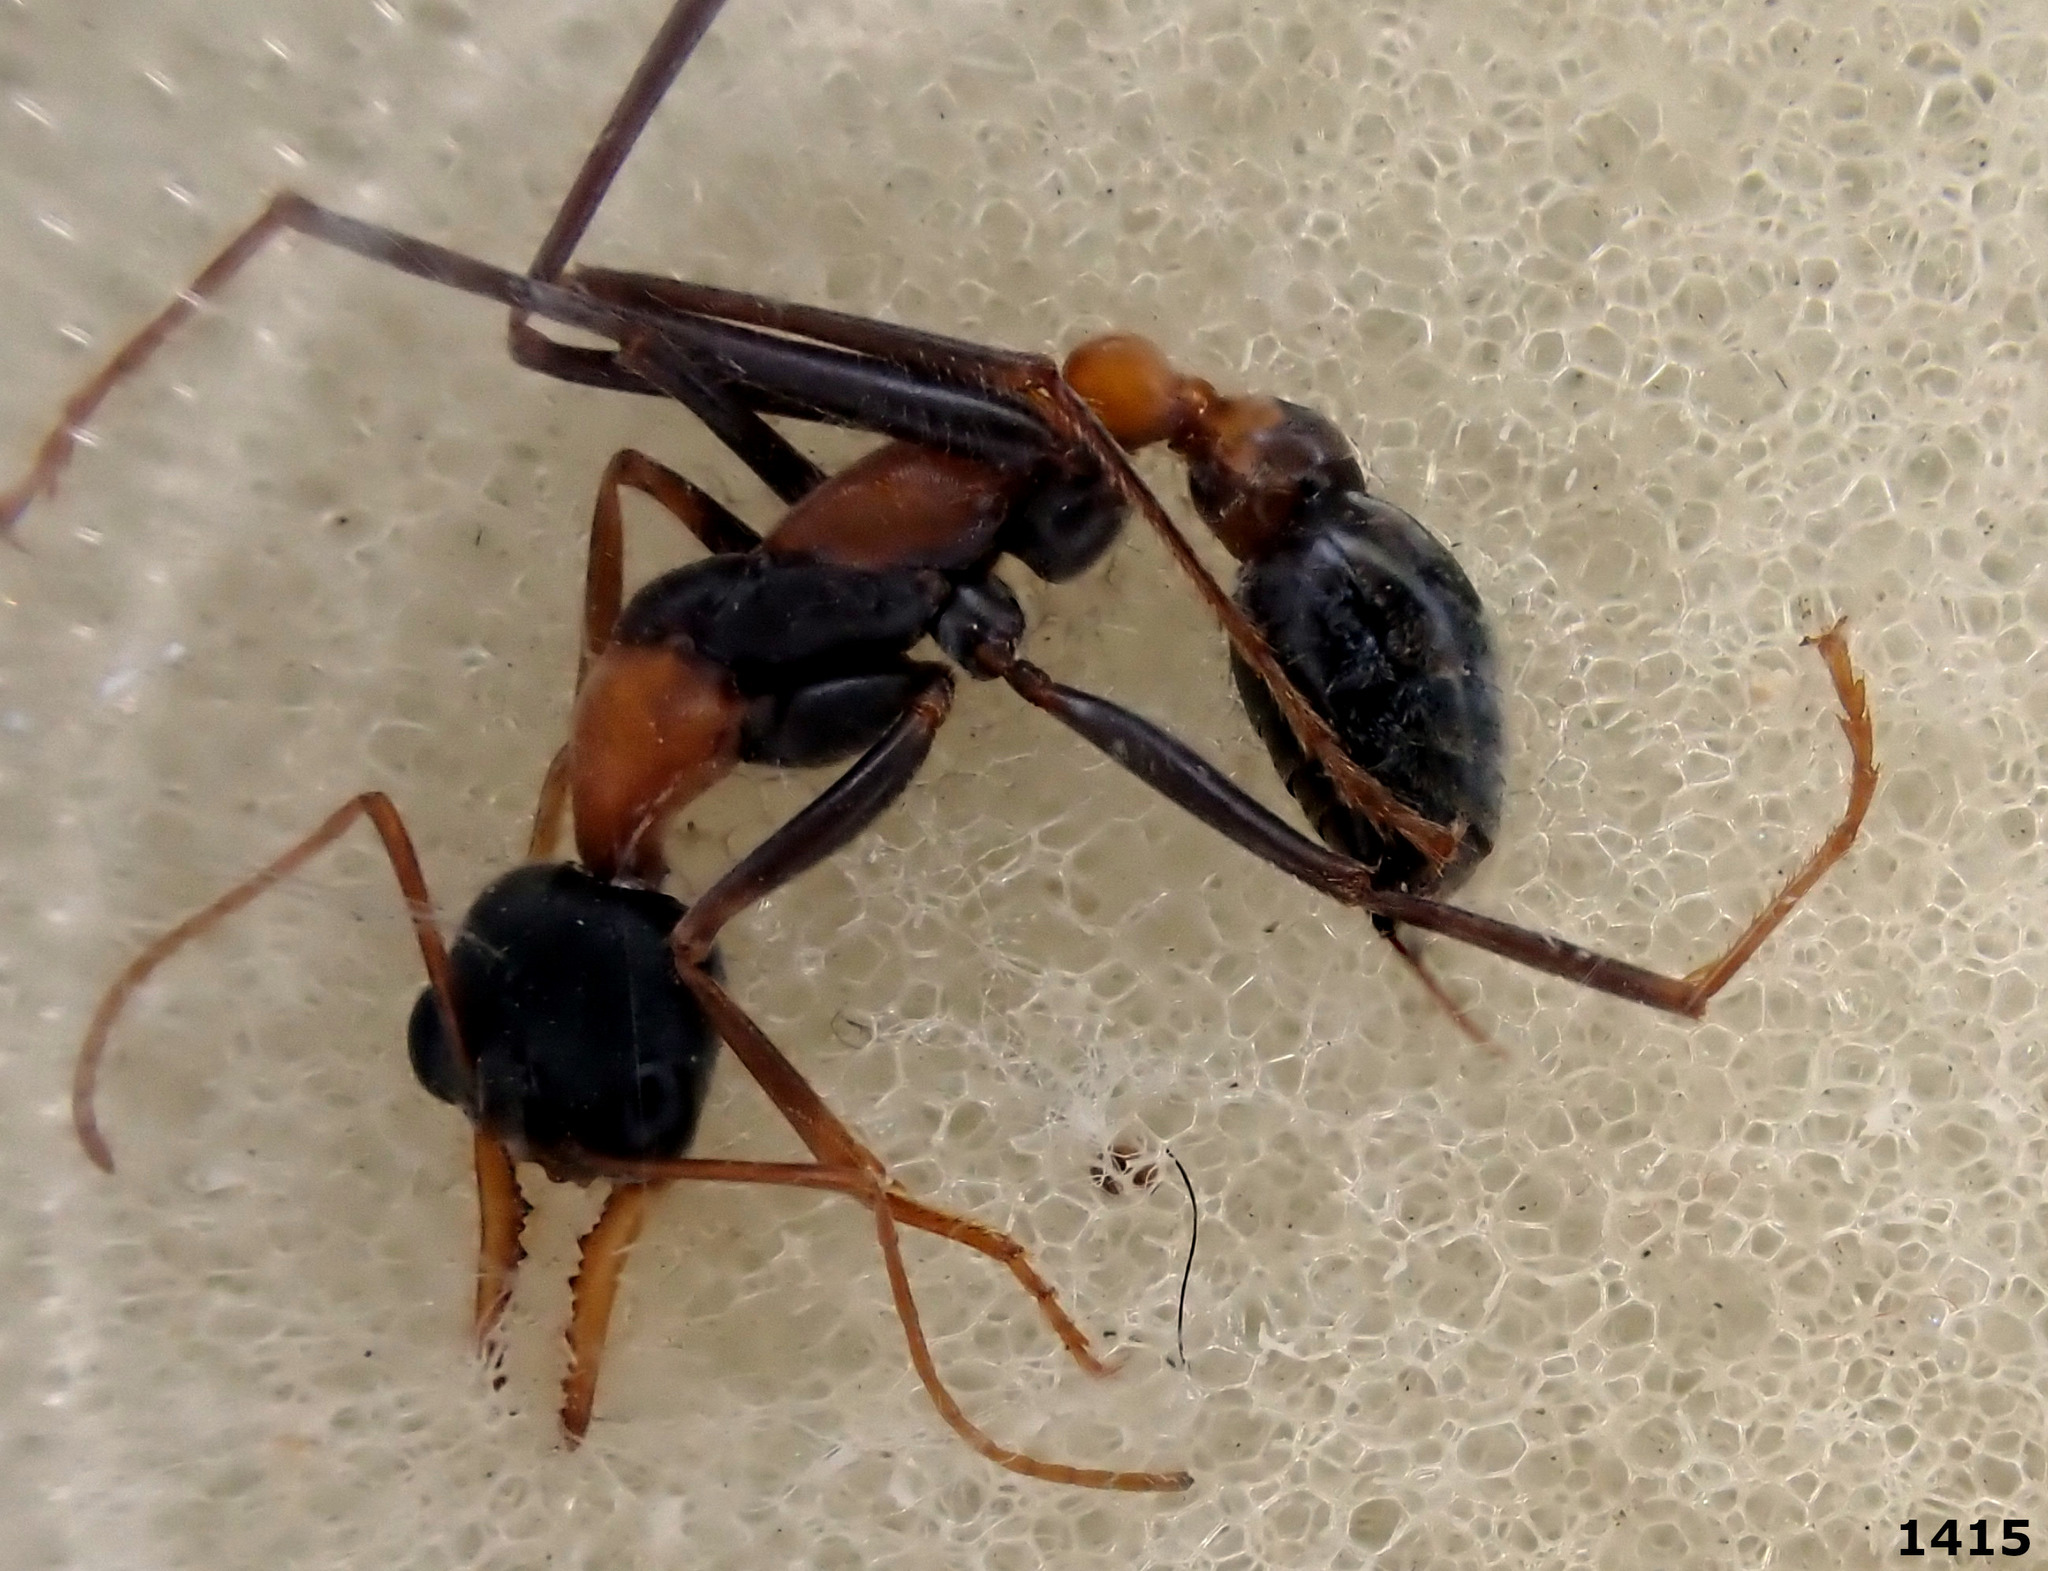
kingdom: Animalia
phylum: Arthropoda
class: Insecta
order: Hymenoptera
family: Formicidae
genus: Myrmecia
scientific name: Myrmecia nigrocincta
